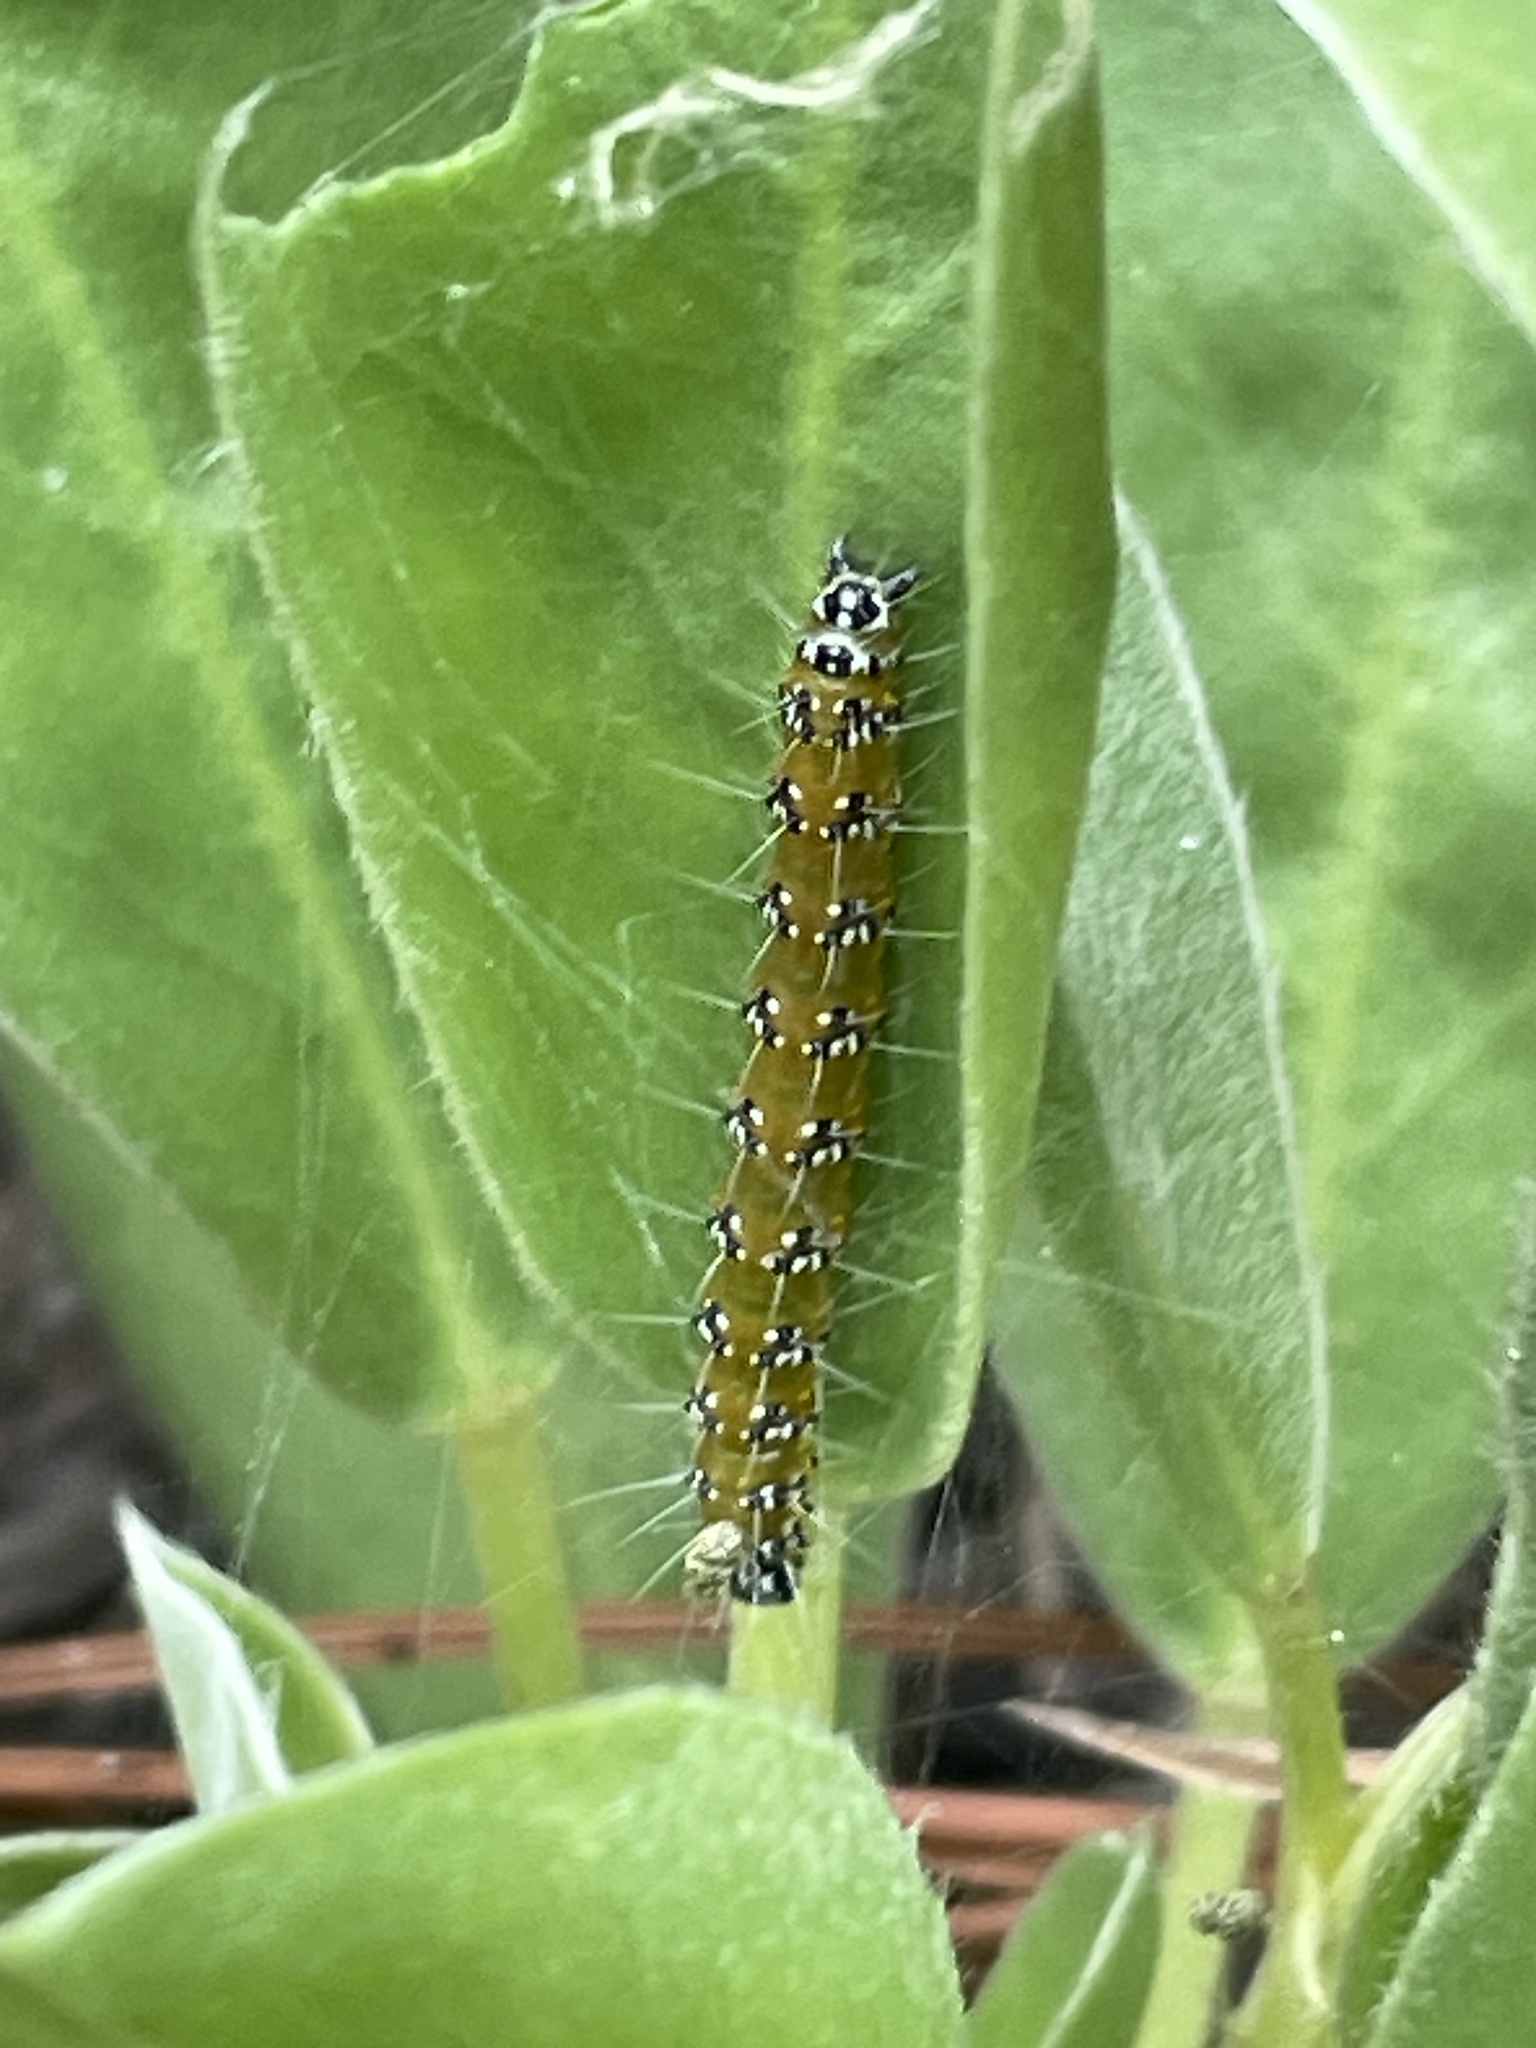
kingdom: Animalia
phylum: Arthropoda
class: Insecta
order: Lepidoptera
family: Crambidae
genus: Uresiphita
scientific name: Uresiphita reversalis
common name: Genista broom moth
